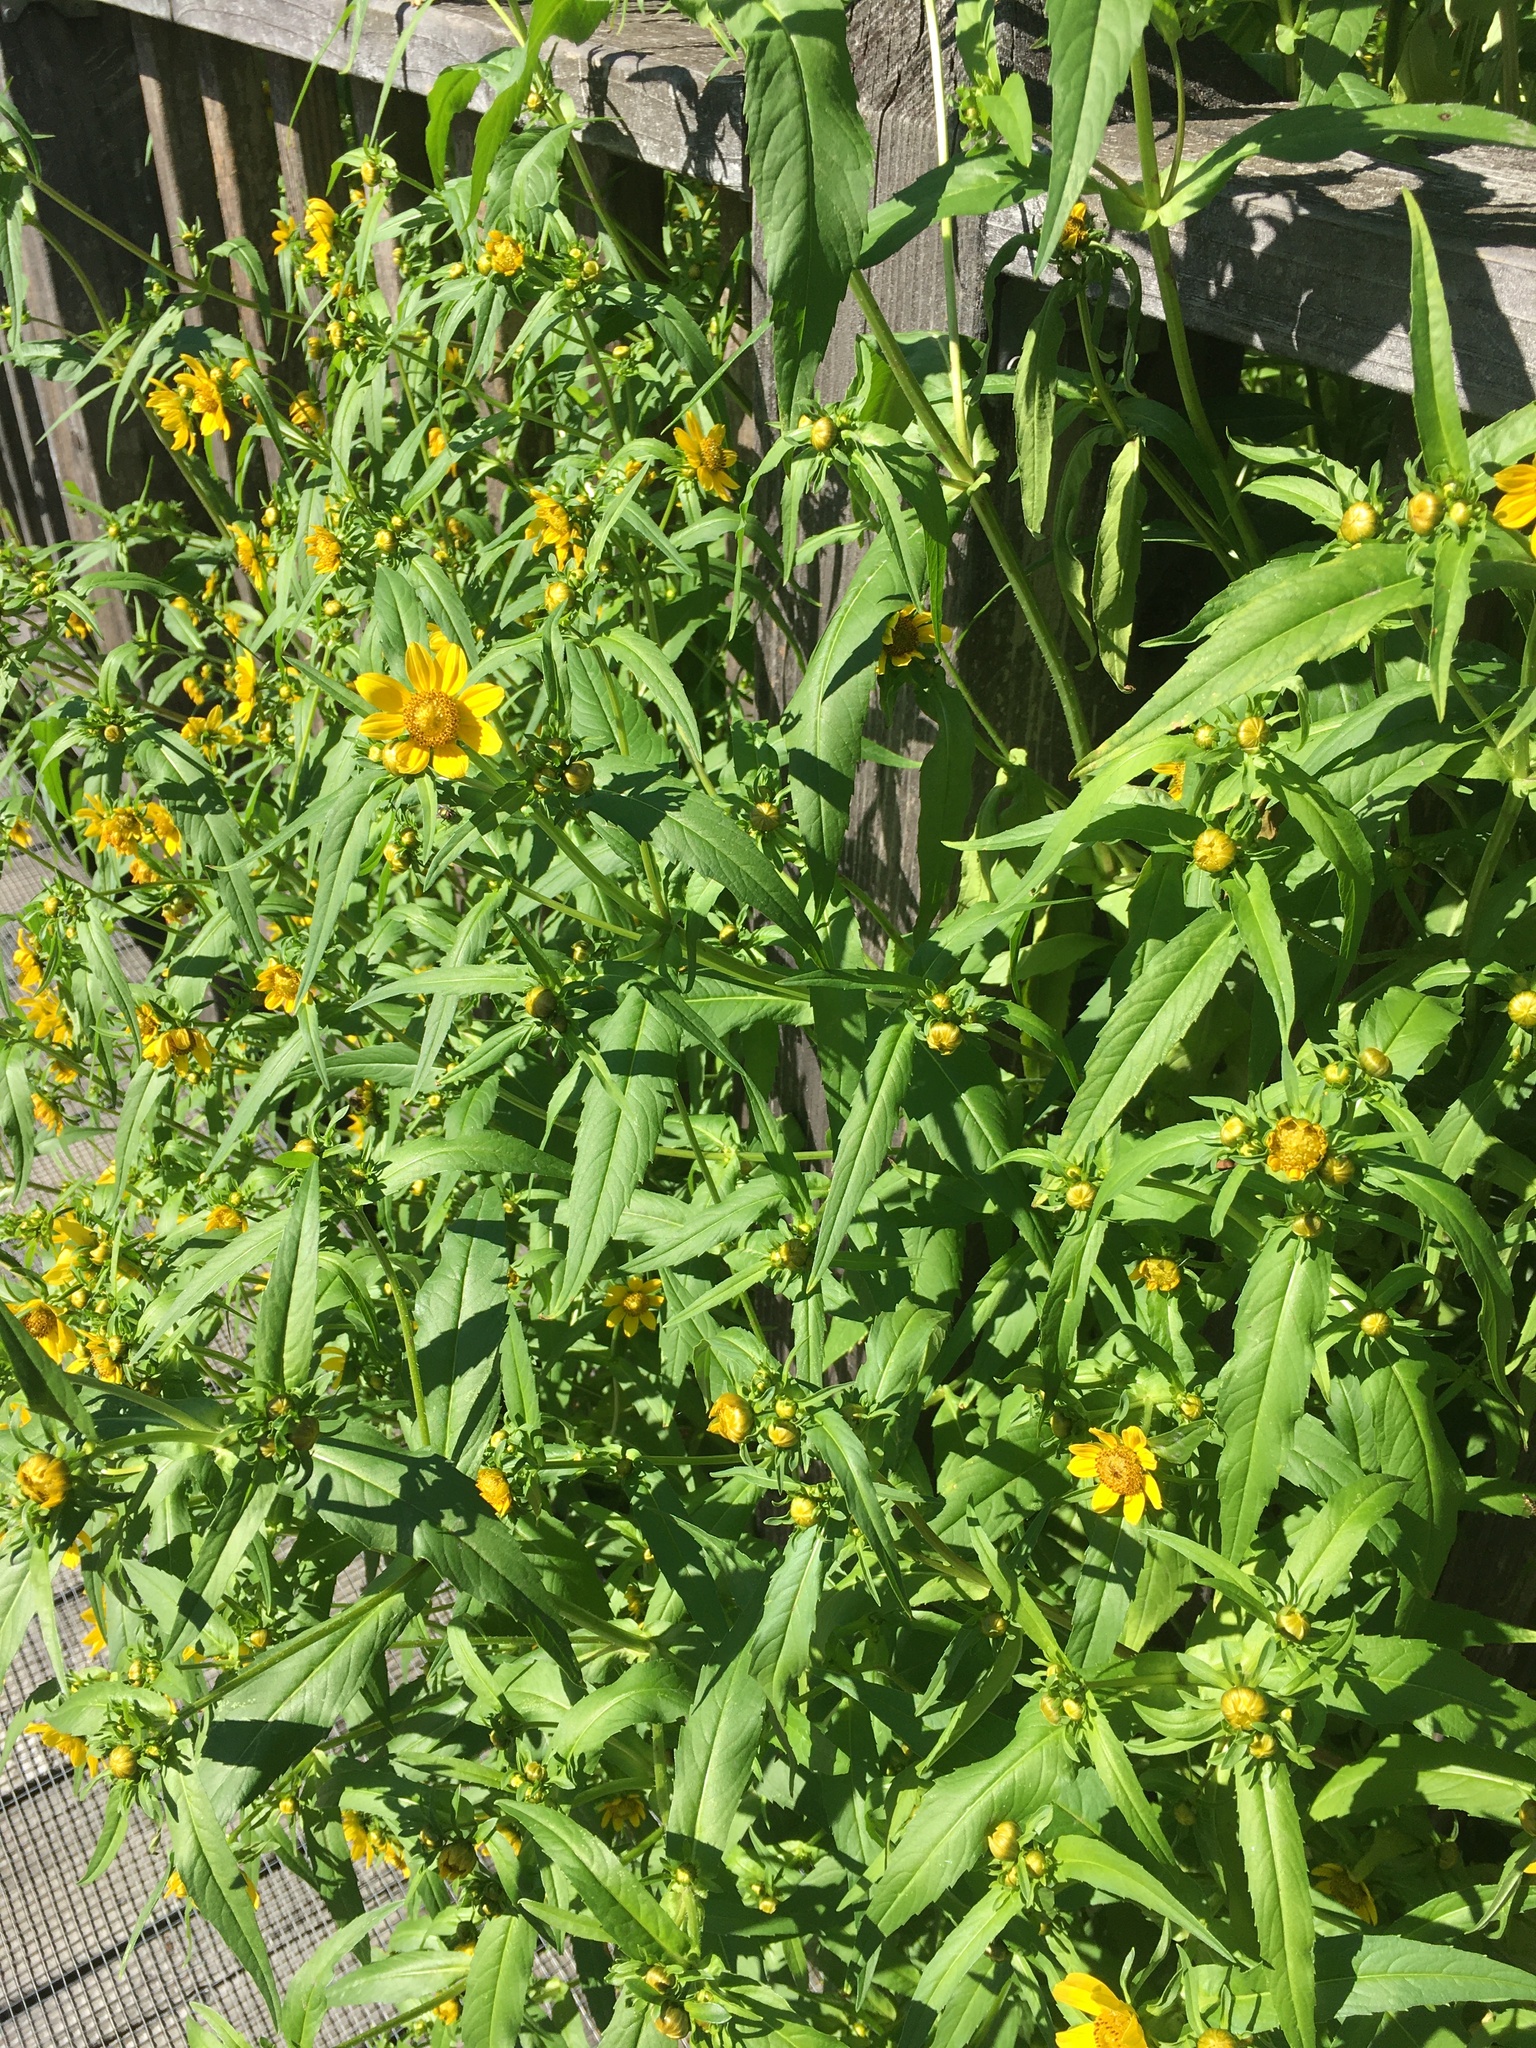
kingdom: Plantae
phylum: Tracheophyta
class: Magnoliopsida
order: Asterales
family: Asteraceae
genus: Bidens
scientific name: Bidens cernua
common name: Nodding bur-marigold
